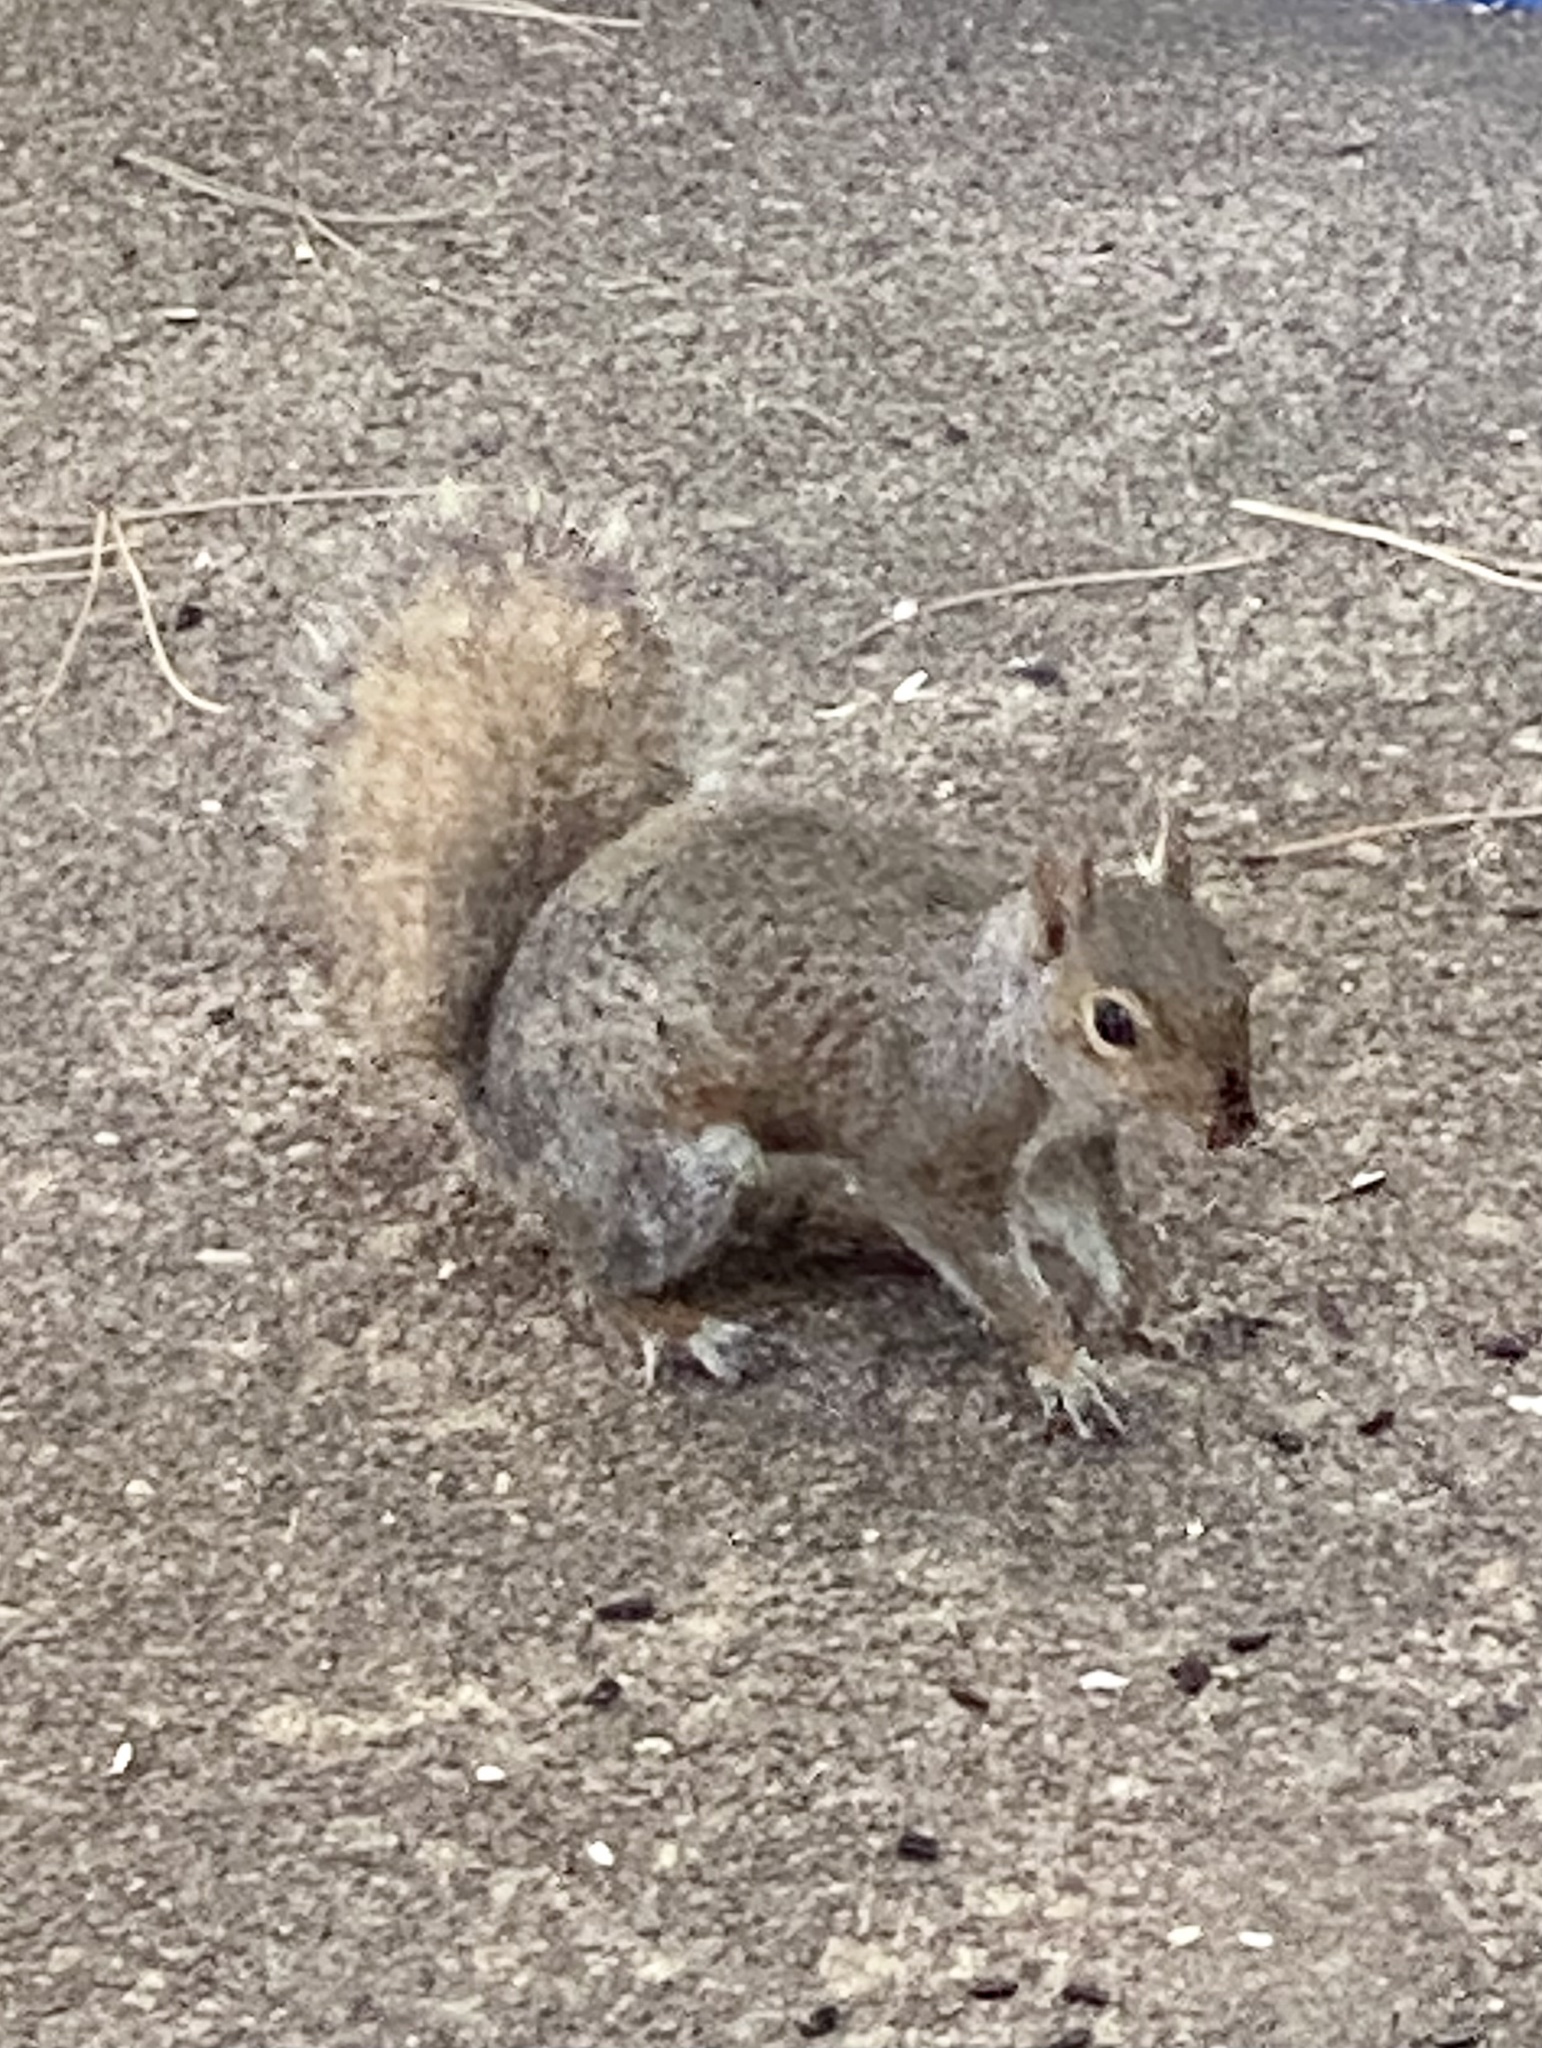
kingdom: Animalia
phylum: Chordata
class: Mammalia
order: Rodentia
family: Sciuridae
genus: Sciurus
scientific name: Sciurus carolinensis
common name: Eastern gray squirrel
